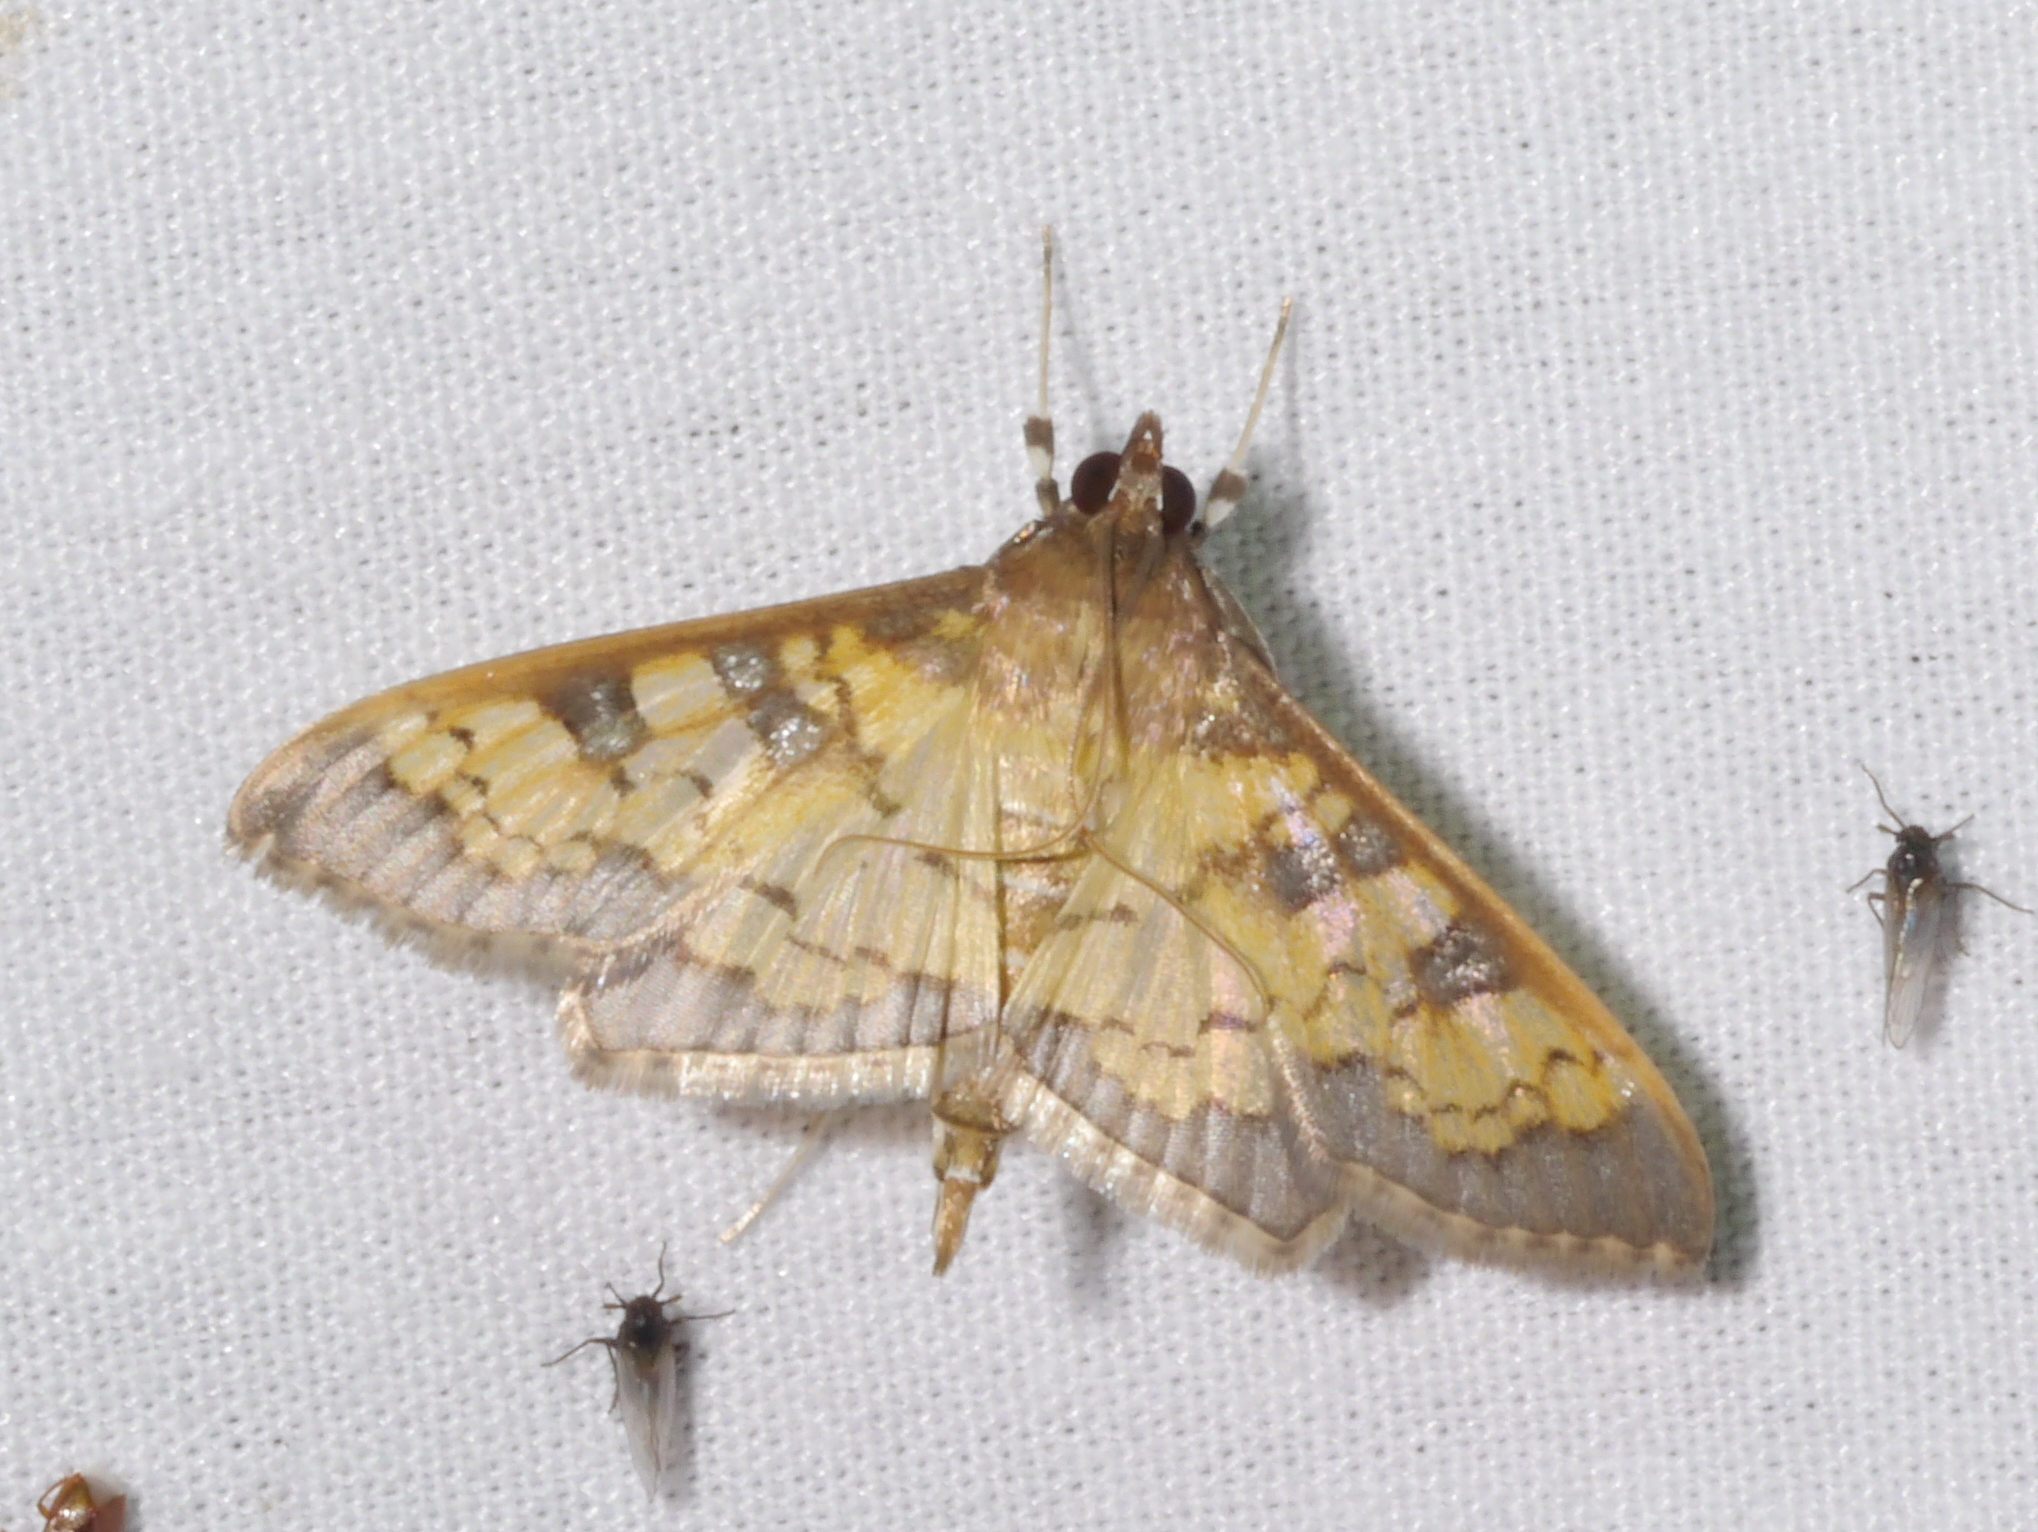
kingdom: Animalia
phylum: Arthropoda
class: Insecta
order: Lepidoptera
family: Crambidae
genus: Cryptographis
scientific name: Cryptographis elealis
